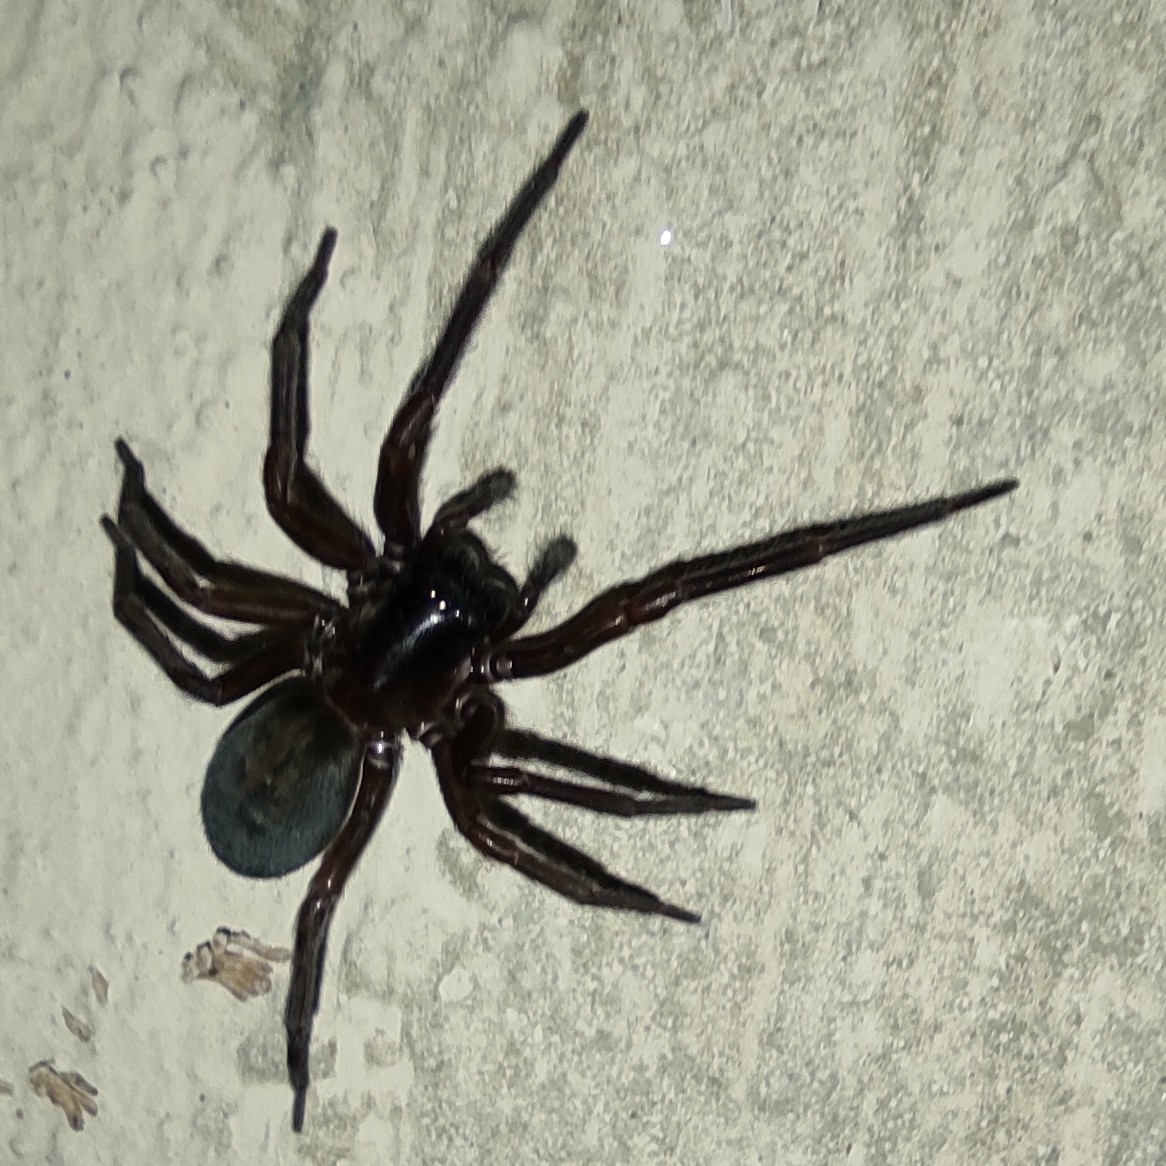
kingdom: Animalia
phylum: Arthropoda
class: Arachnida
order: Araneae
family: Amaurobiidae
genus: Amaurobius
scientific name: Amaurobius ferox
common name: Black laceweaver
